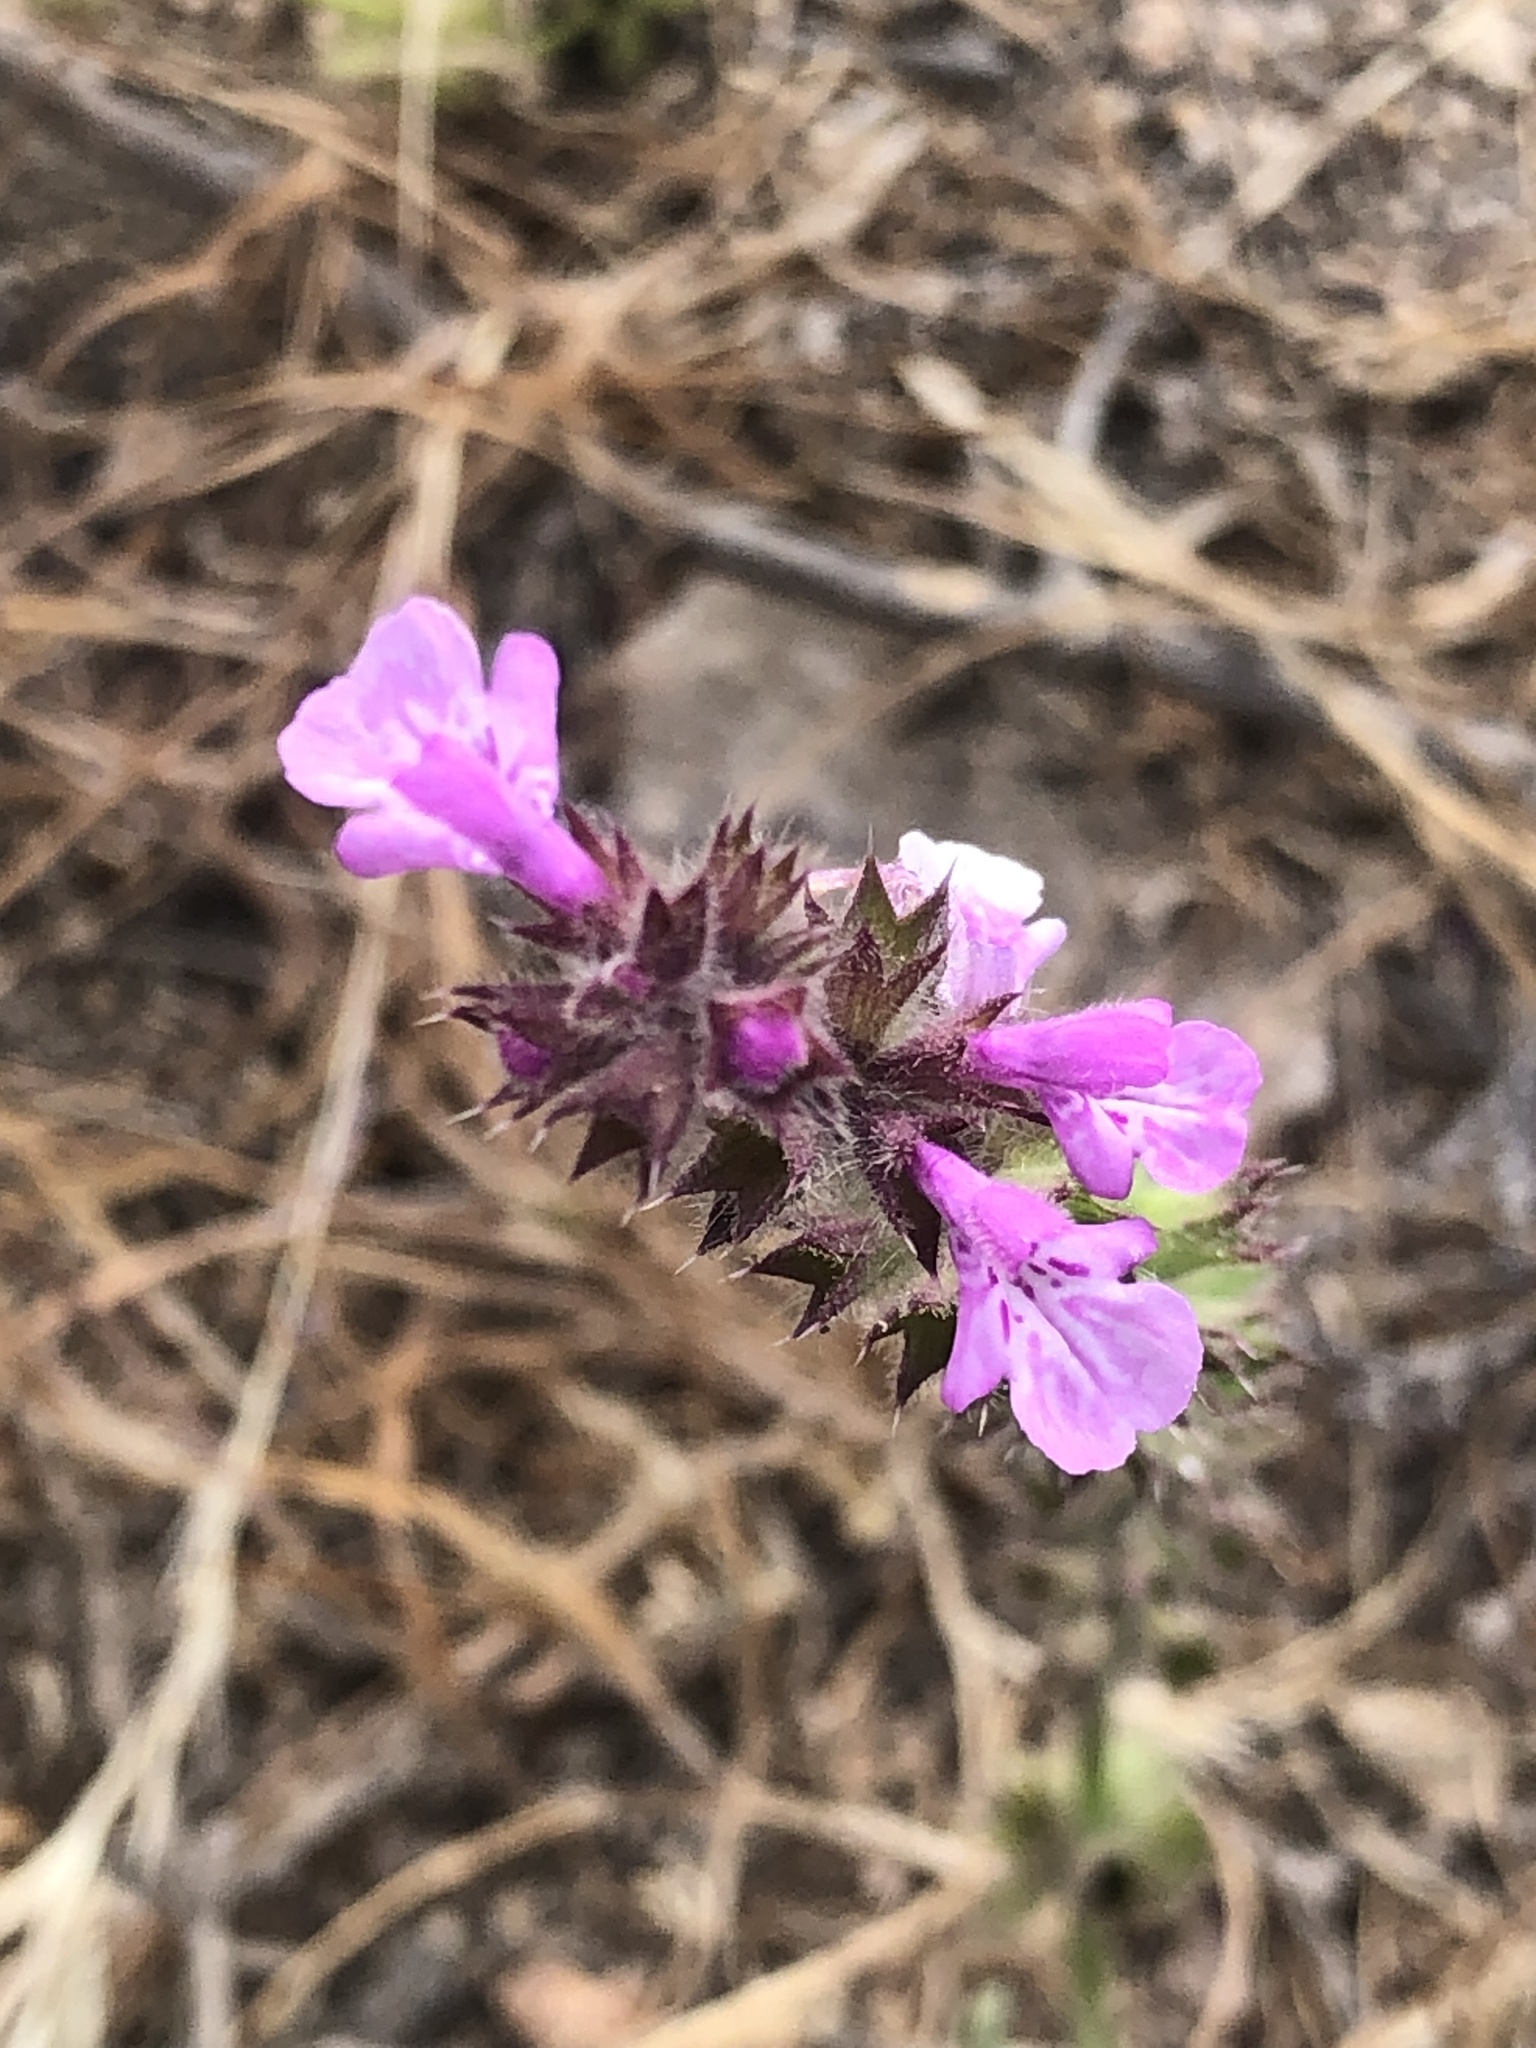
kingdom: Plantae
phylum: Tracheophyta
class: Magnoliopsida
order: Lamiales
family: Lamiaceae
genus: Stachys
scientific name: Stachys grandidentata
